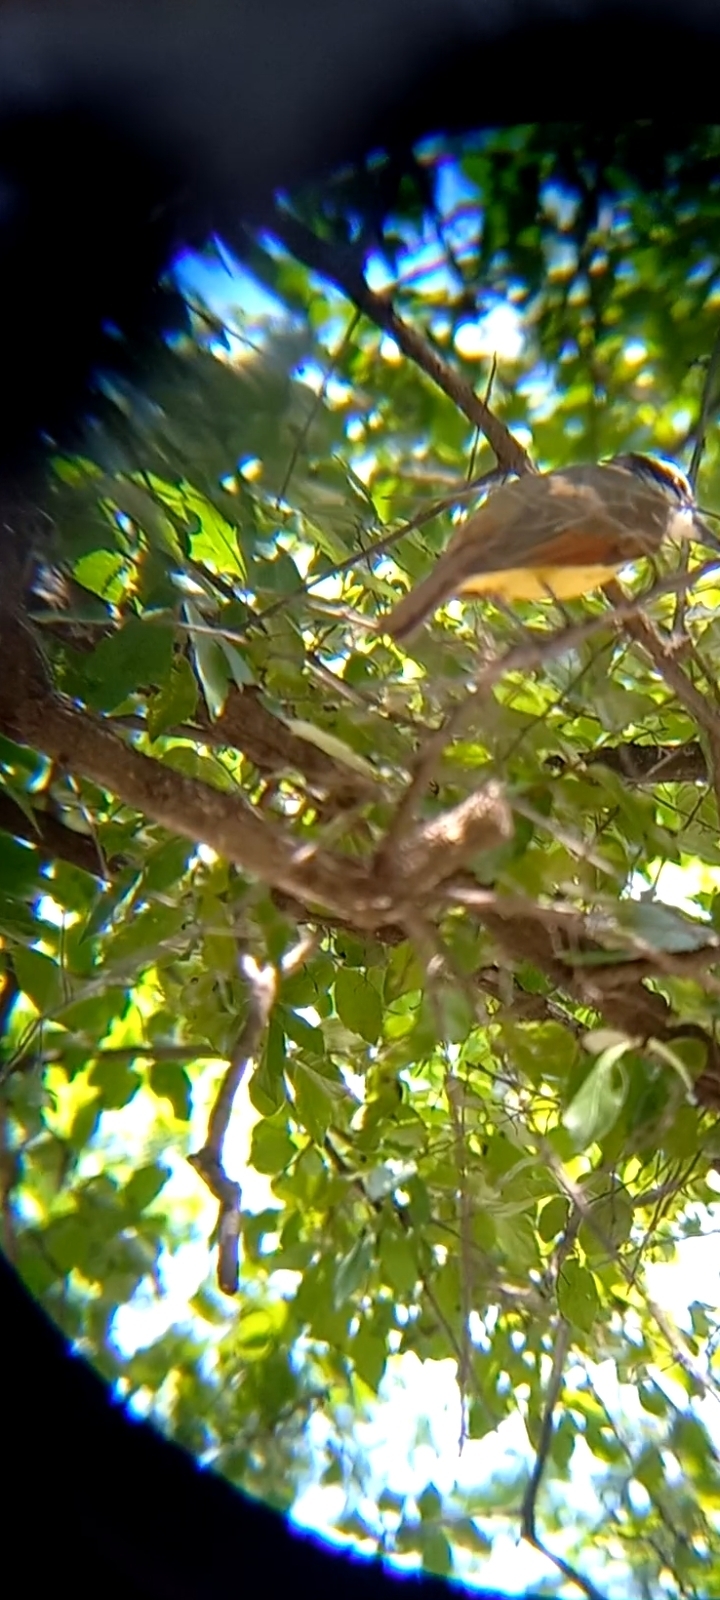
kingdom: Animalia
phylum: Chordata
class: Aves
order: Passeriformes
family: Tyrannidae
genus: Pitangus
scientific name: Pitangus sulphuratus
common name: Great kiskadee
